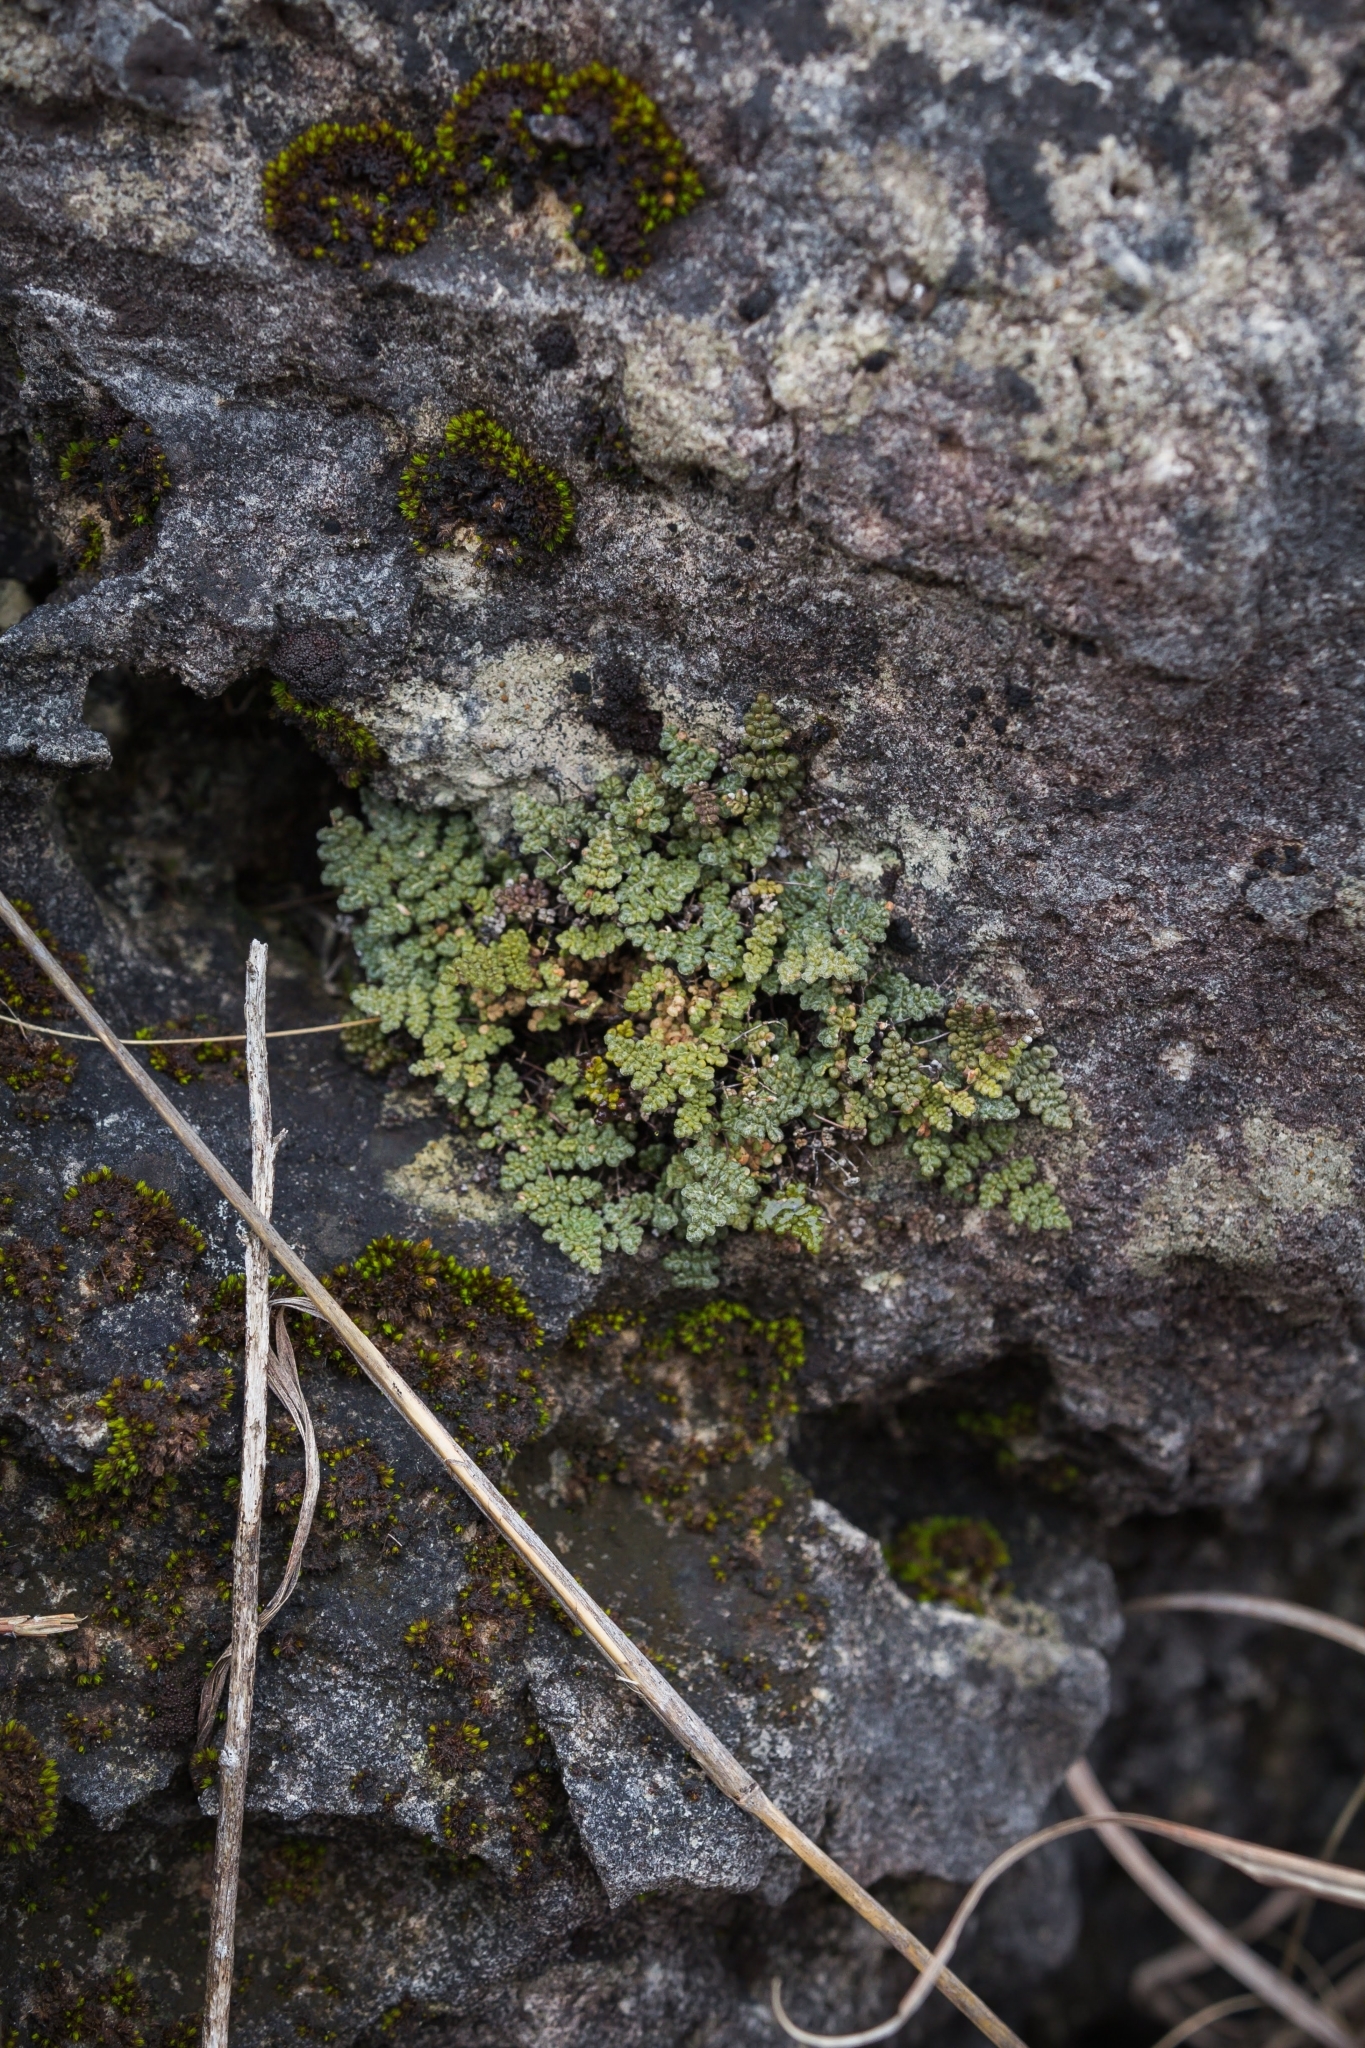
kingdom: Plantae
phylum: Tracheophyta
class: Polypodiopsida
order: Polypodiales
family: Pteridaceae
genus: Myriopteris
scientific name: Myriopteris gracilis
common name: Fee's lip fern
